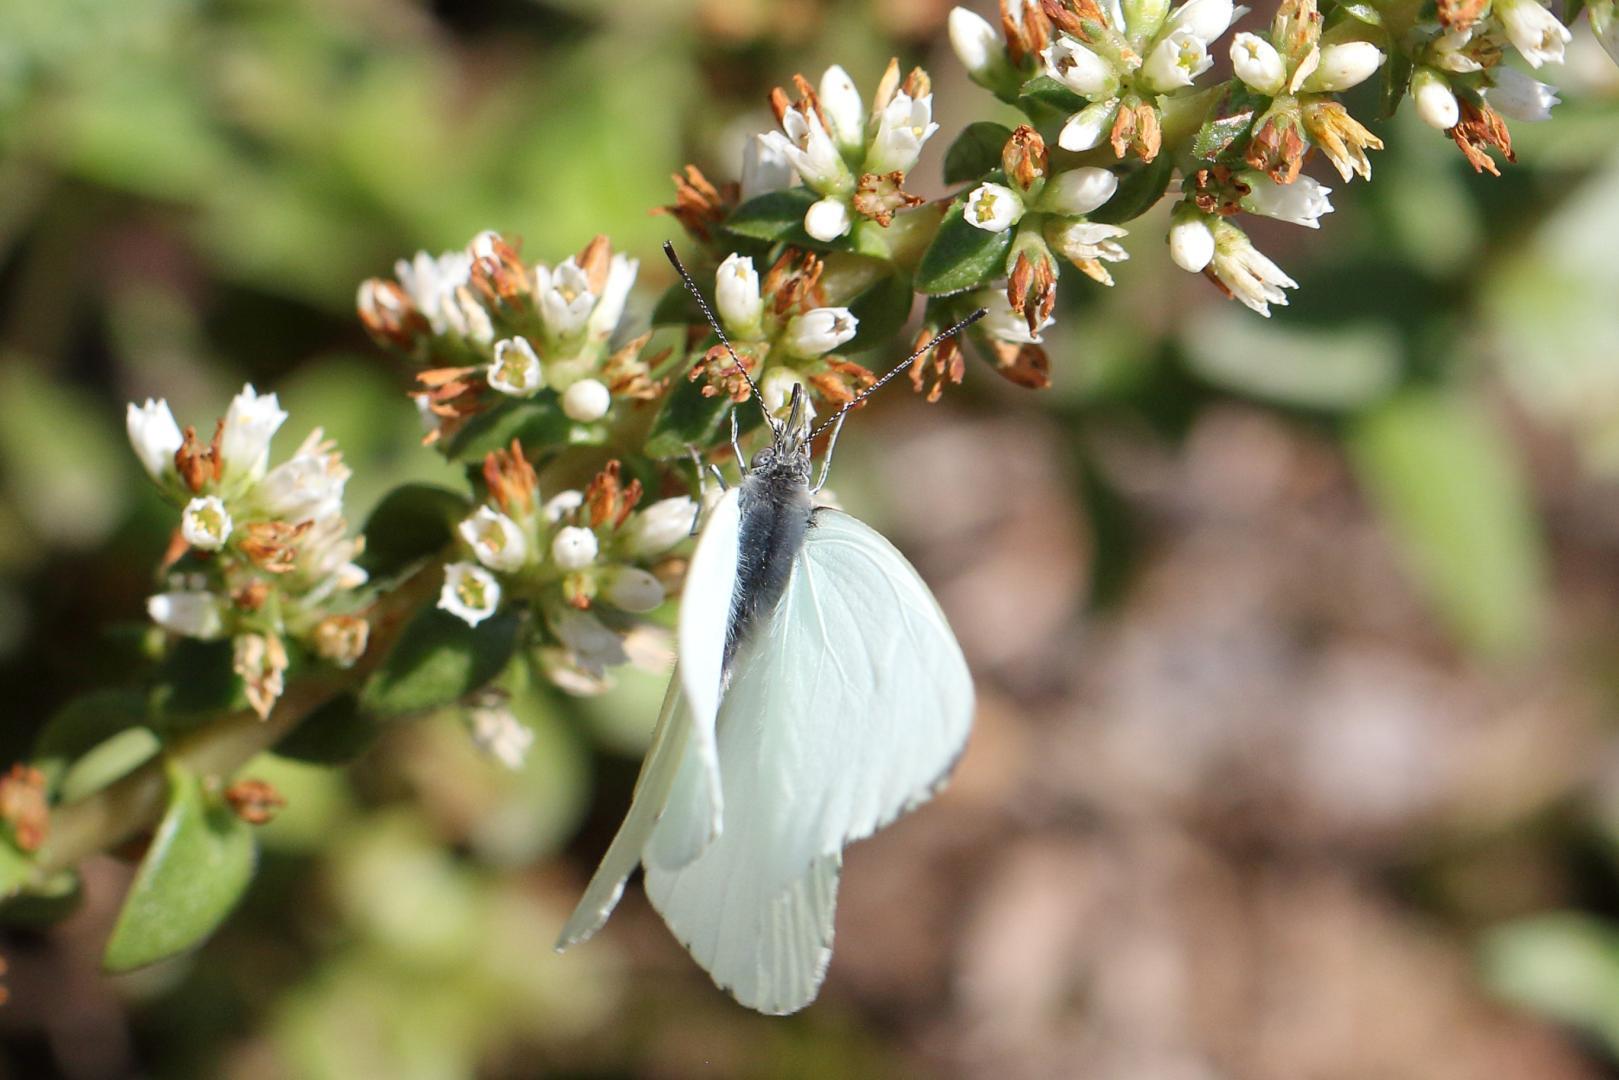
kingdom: Animalia
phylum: Arthropoda
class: Insecta
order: Lepidoptera
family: Pieridae
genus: Dixeia
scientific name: Dixeia pigea
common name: Ant-heap small white
